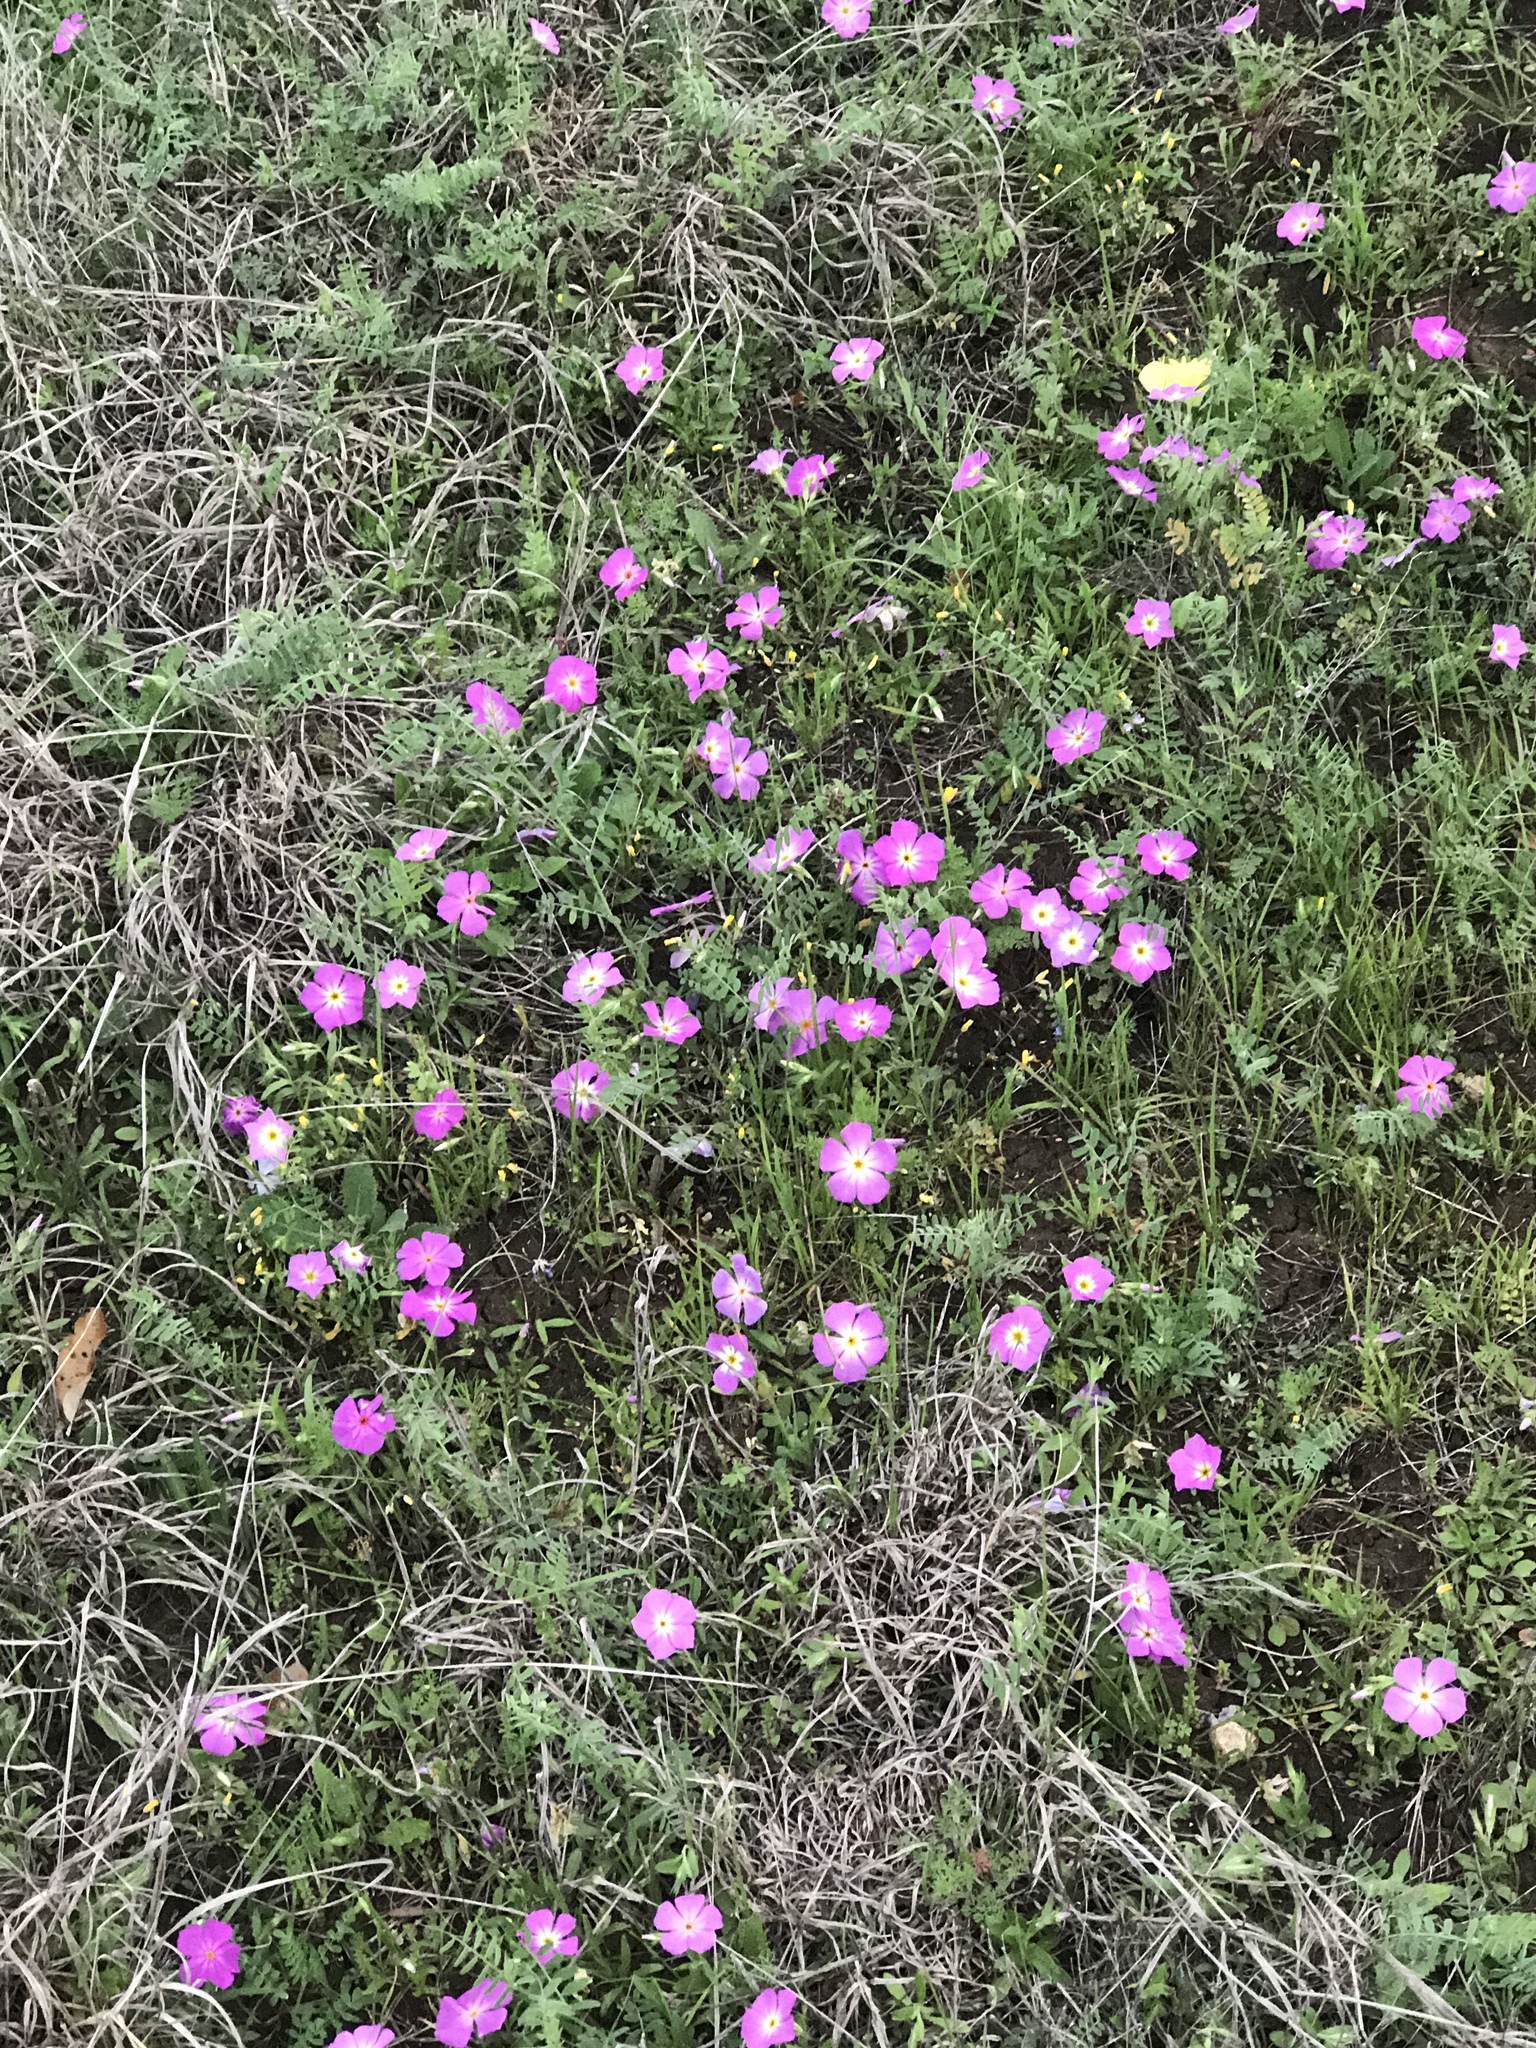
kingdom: Plantae
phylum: Tracheophyta
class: Magnoliopsida
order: Ericales
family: Polemoniaceae
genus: Phlox
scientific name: Phlox roemeriana
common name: Roemer's phlox
